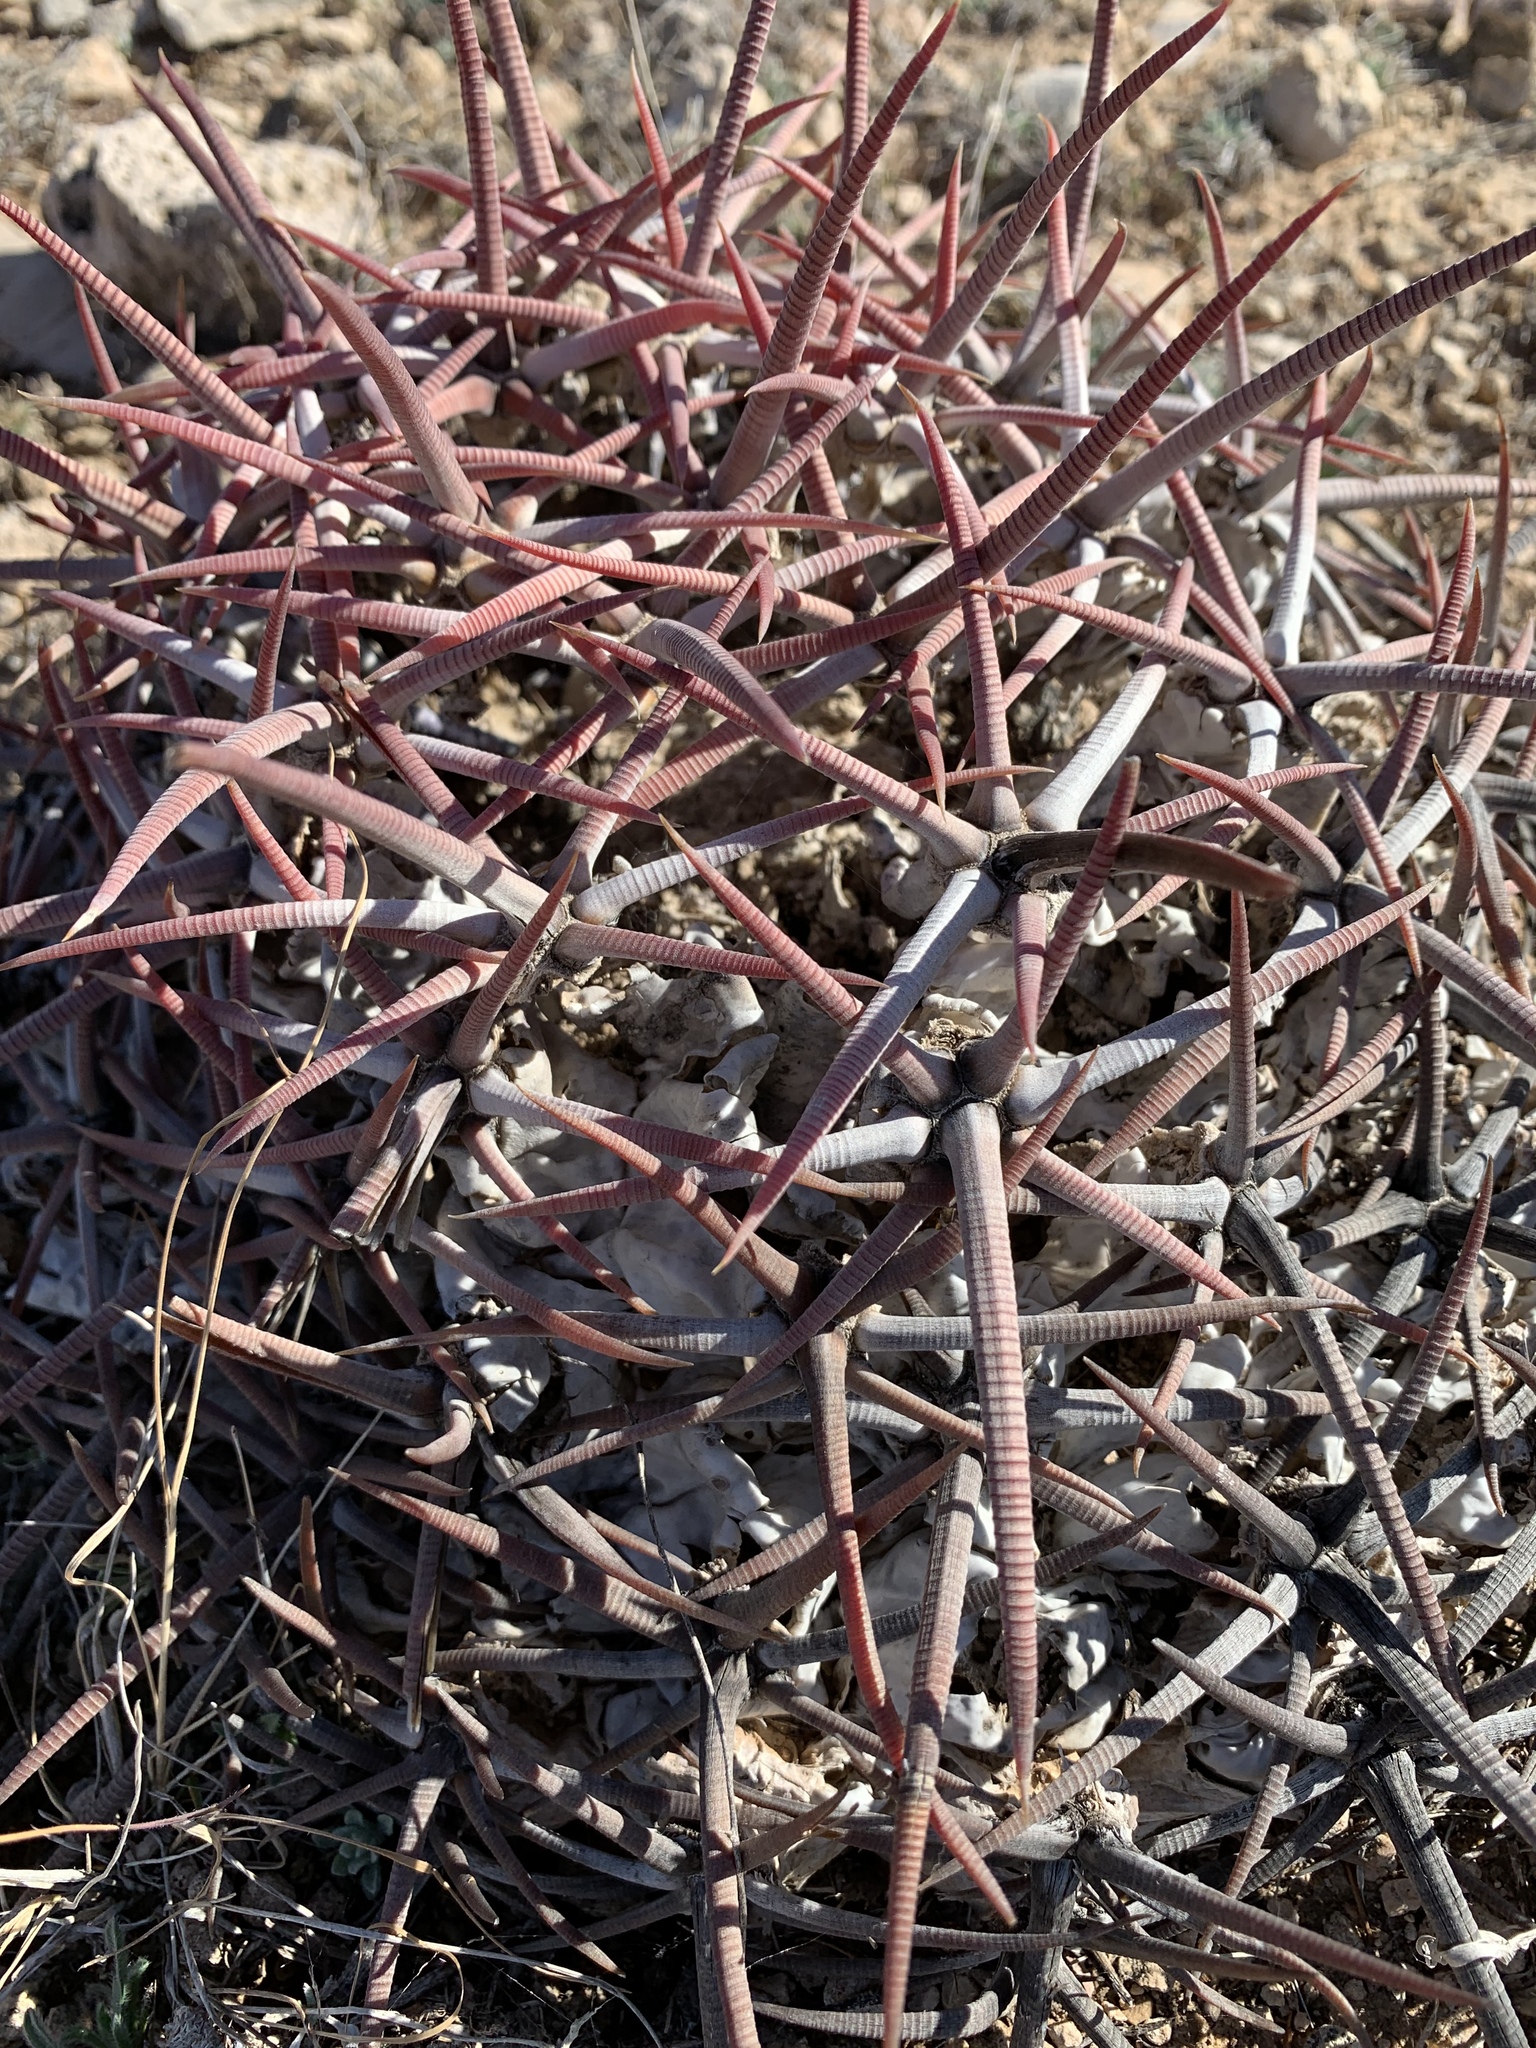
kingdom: Plantae
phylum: Tracheophyta
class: Magnoliopsida
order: Caryophyllales
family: Cactaceae
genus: Echinocactus
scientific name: Echinocactus horizonthalonius
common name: Devilshead
